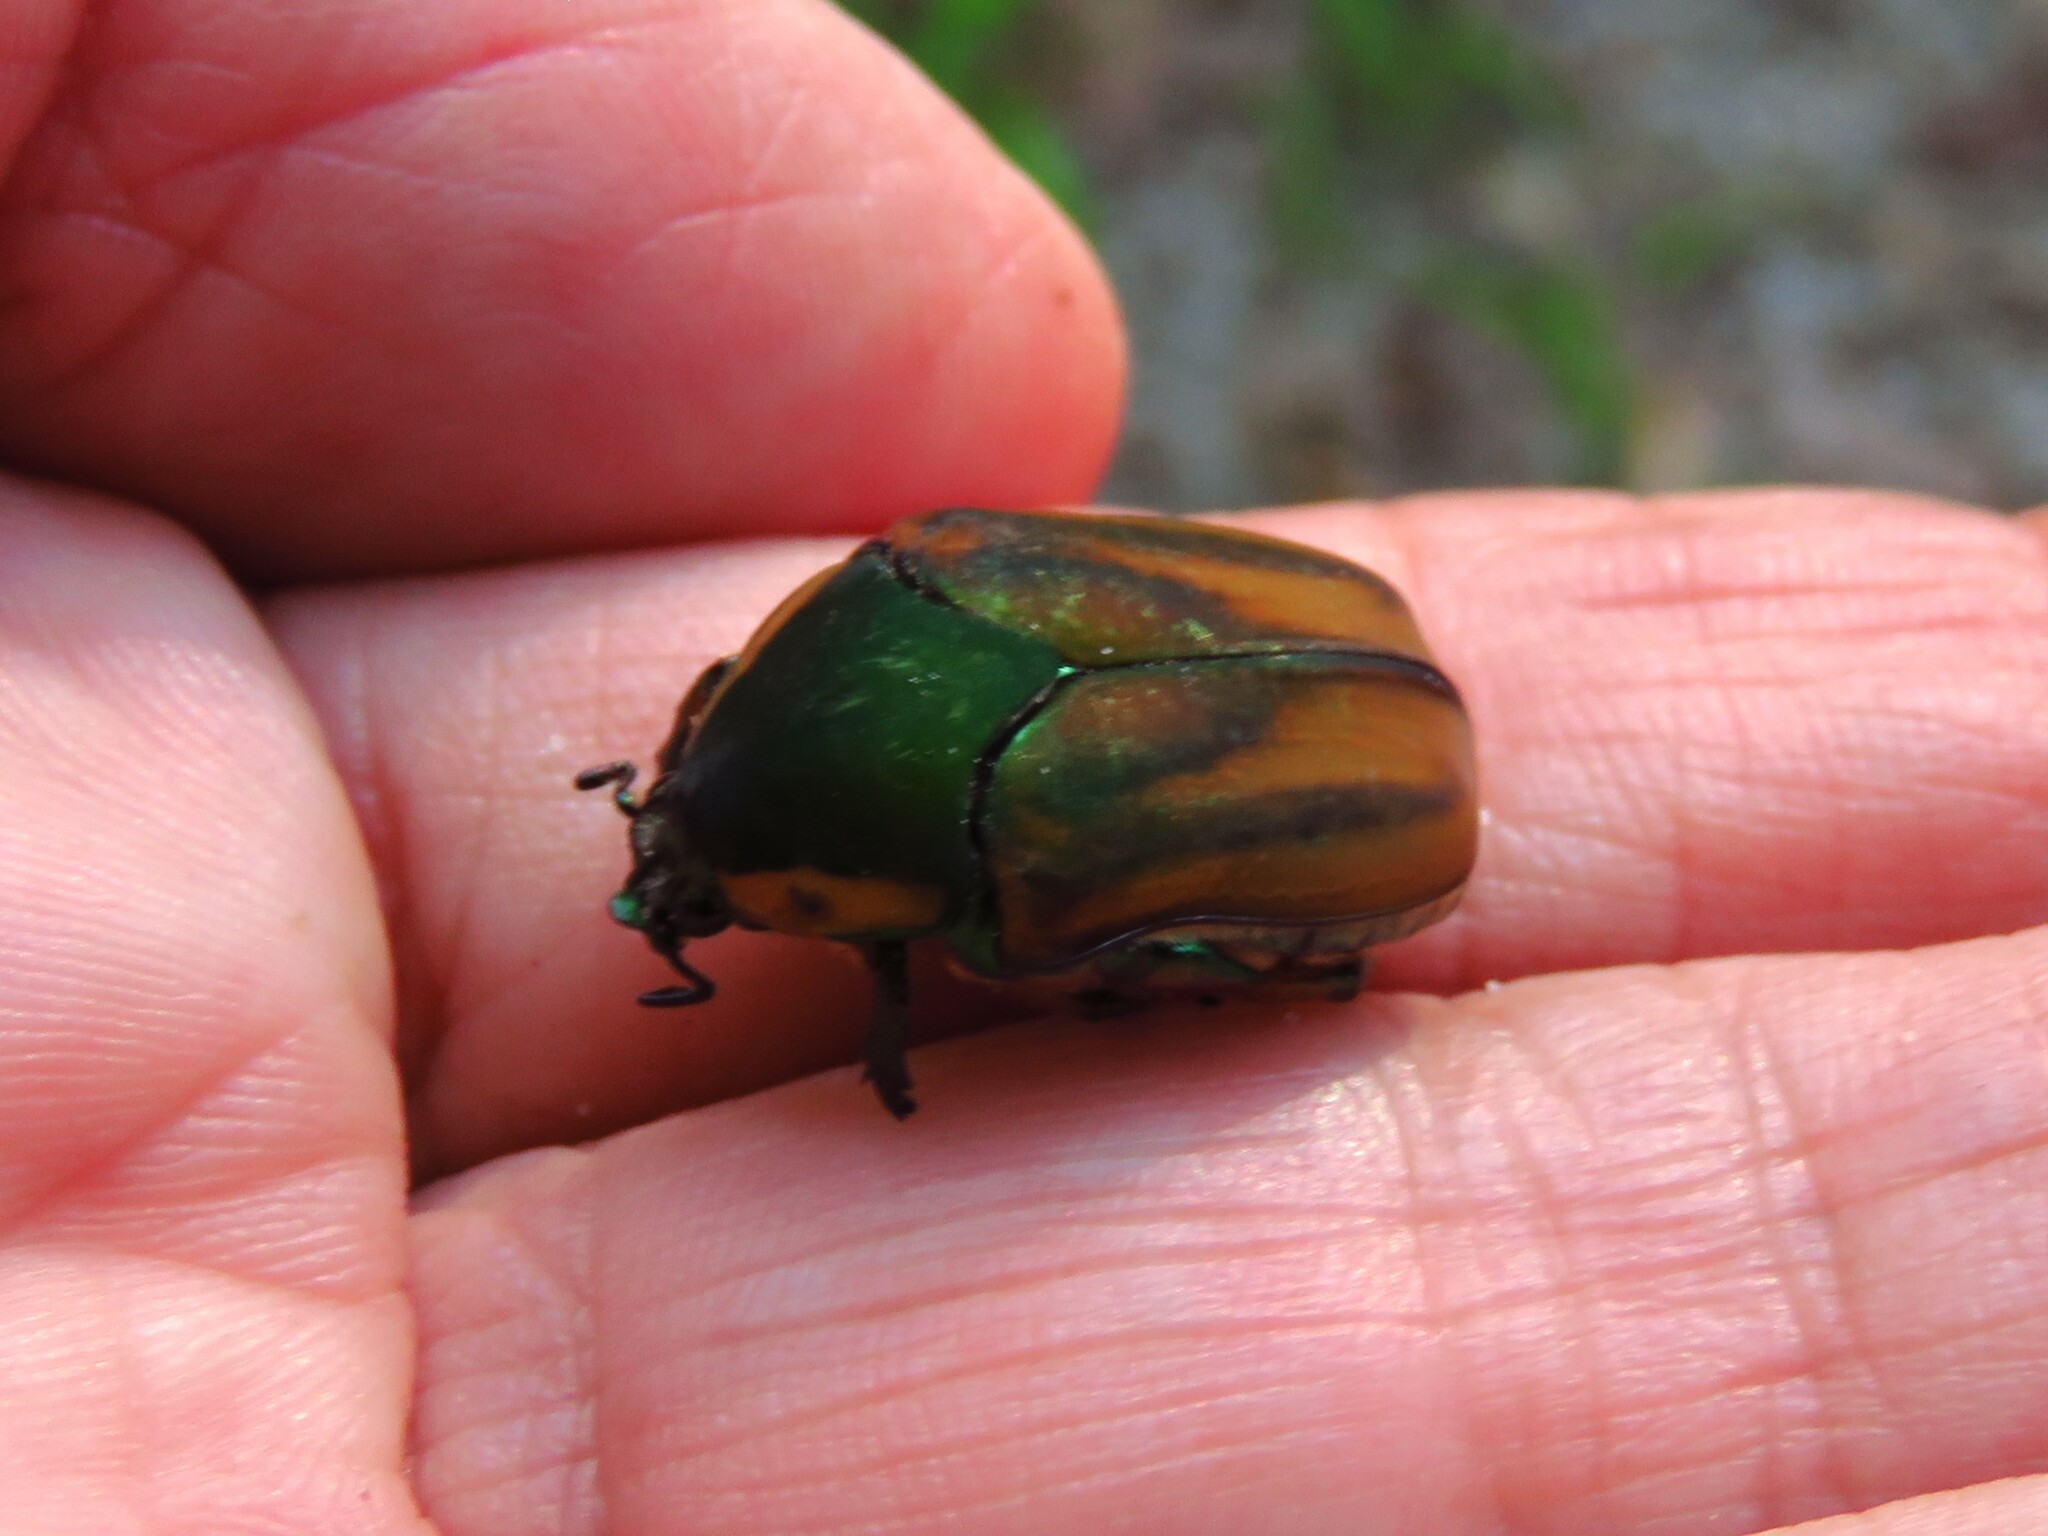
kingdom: Animalia
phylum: Arthropoda
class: Insecta
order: Coleoptera
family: Scarabaeidae
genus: Cotinis
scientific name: Cotinis nitida
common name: Common green june beetle
